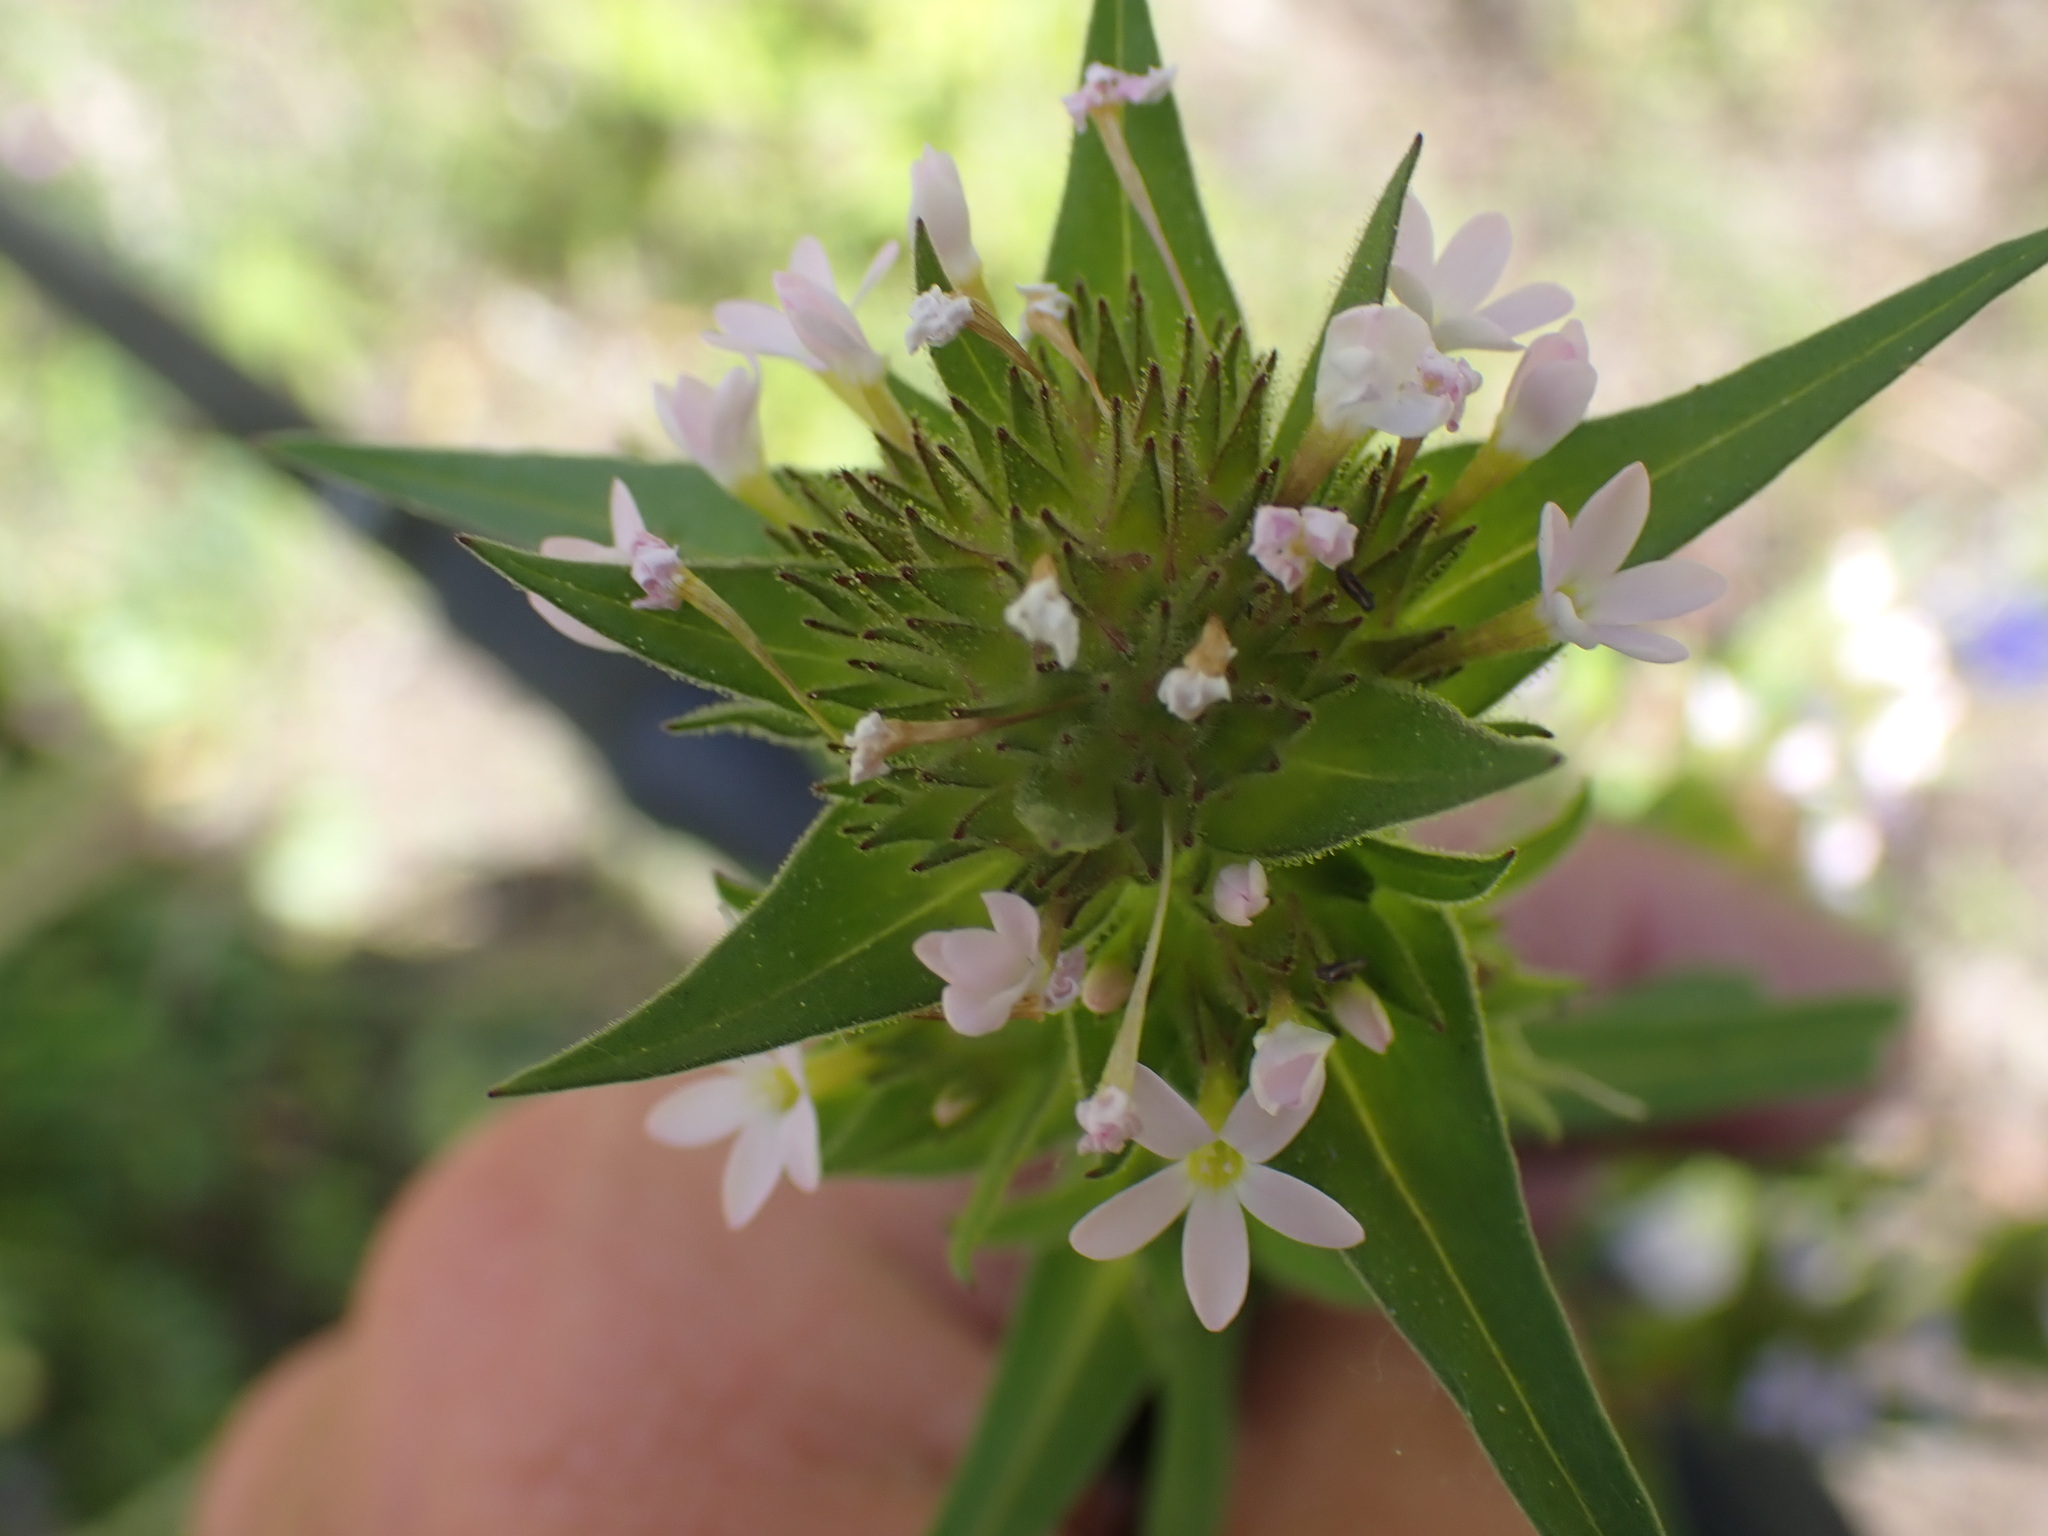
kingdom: Plantae
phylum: Tracheophyta
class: Magnoliopsida
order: Ericales
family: Polemoniaceae
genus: Collomia
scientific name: Collomia linearis
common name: Tiny trumpet
